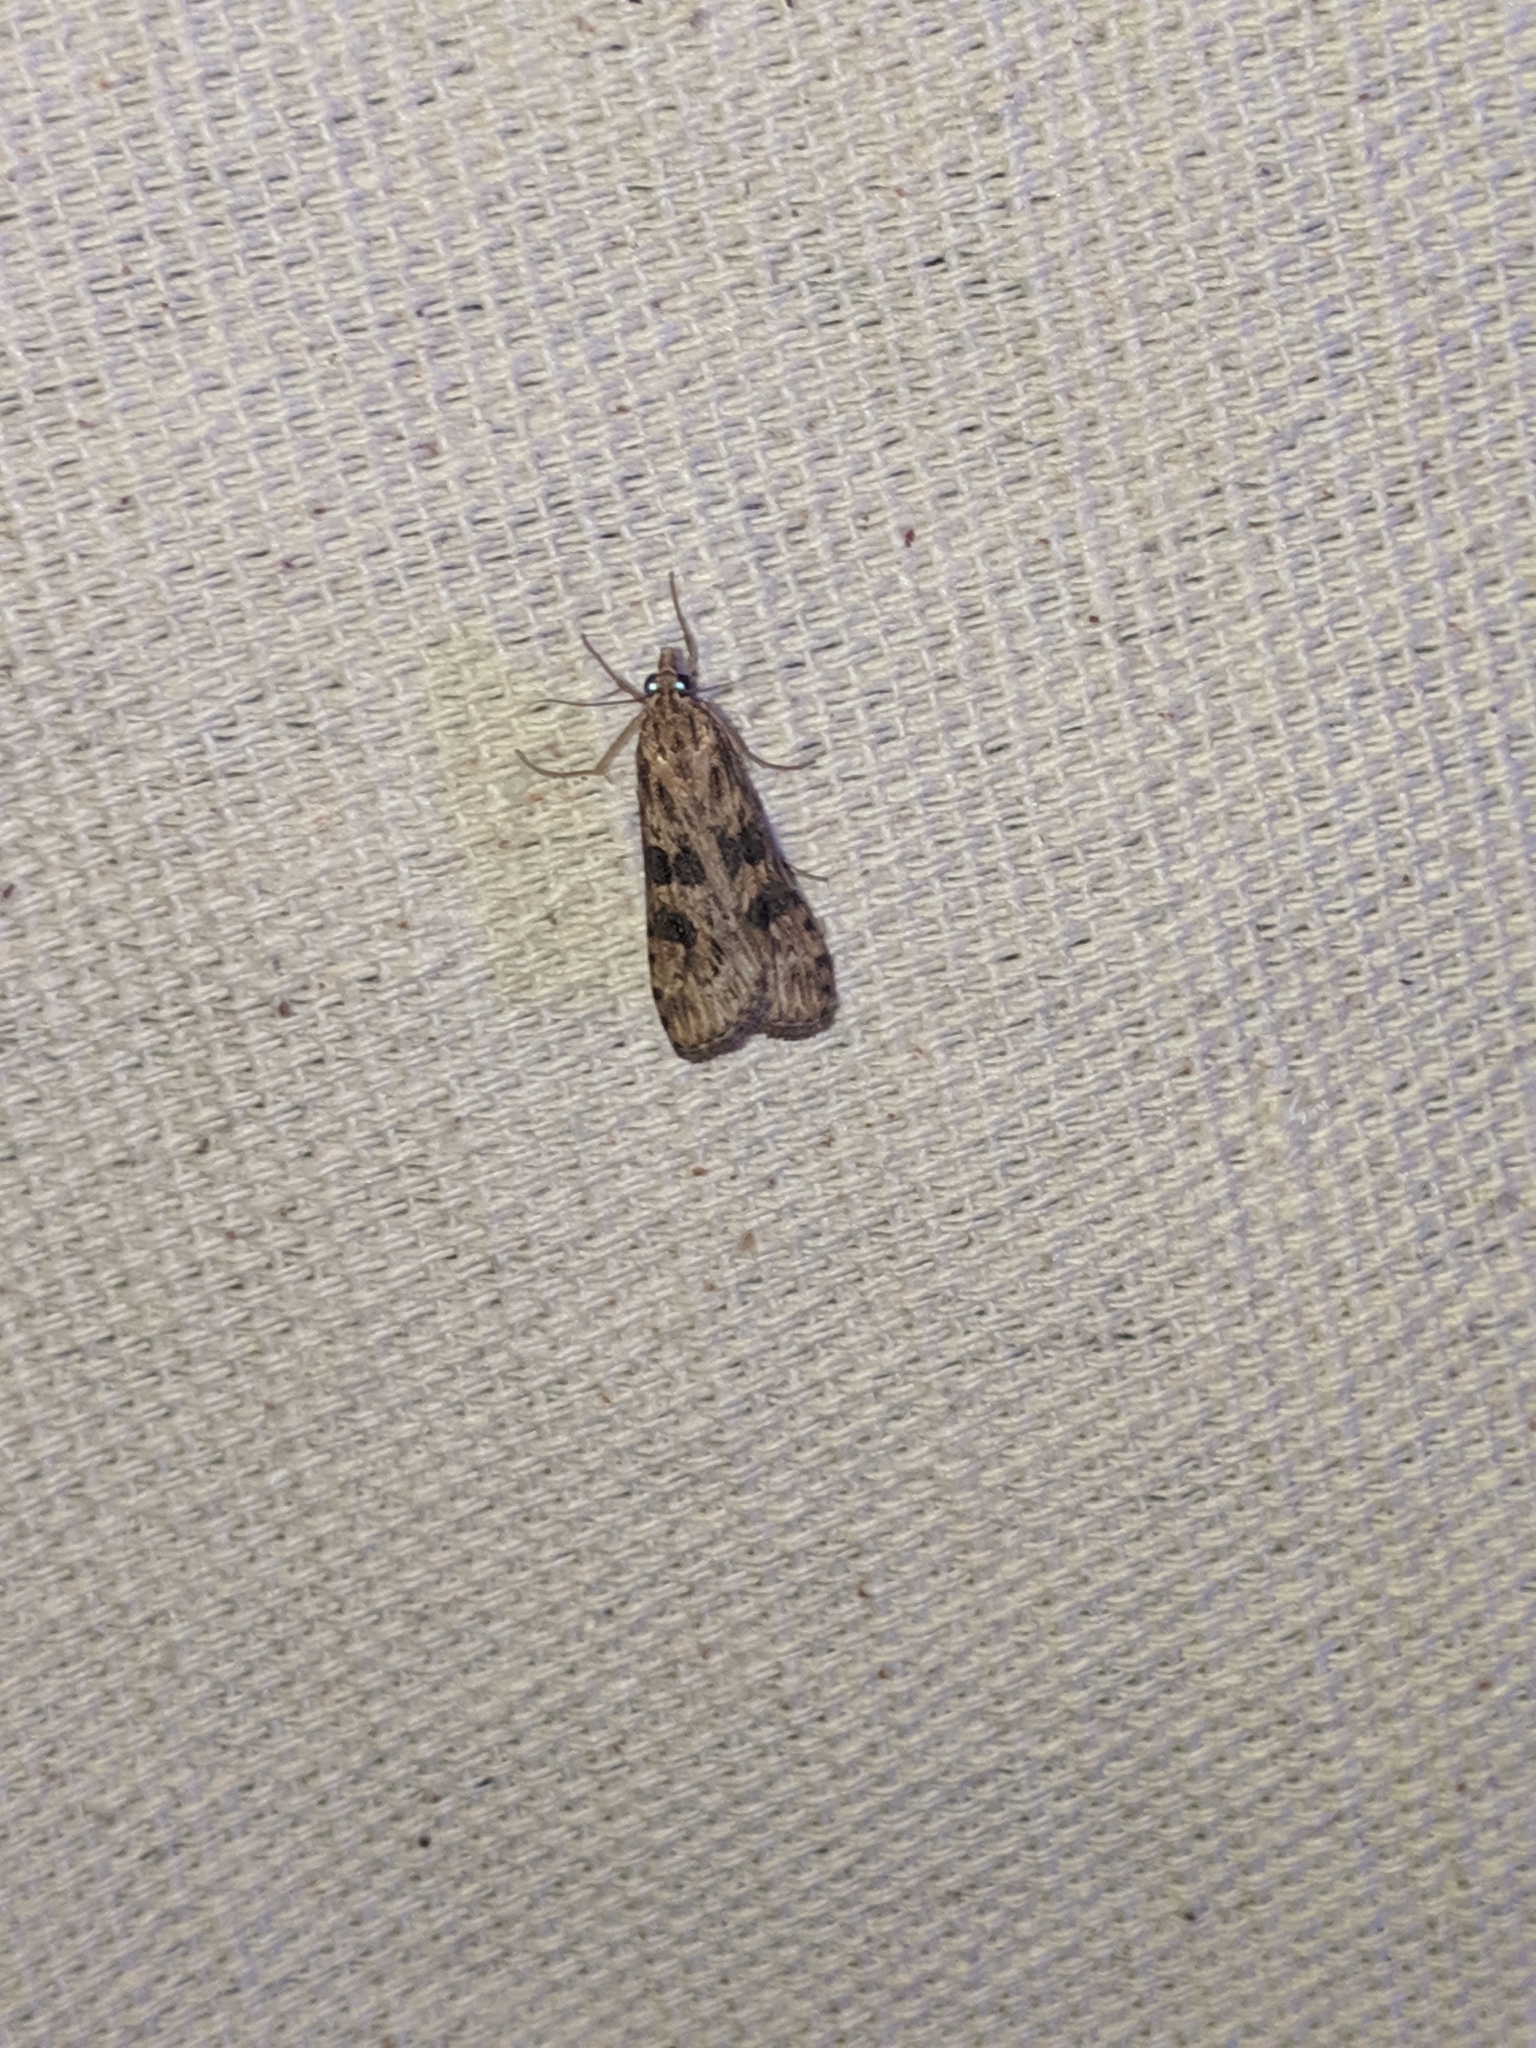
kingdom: Animalia
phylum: Arthropoda
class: Insecta
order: Lepidoptera
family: Crambidae
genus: Nomophila
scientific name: Nomophila nearctica
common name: American rush veneer
